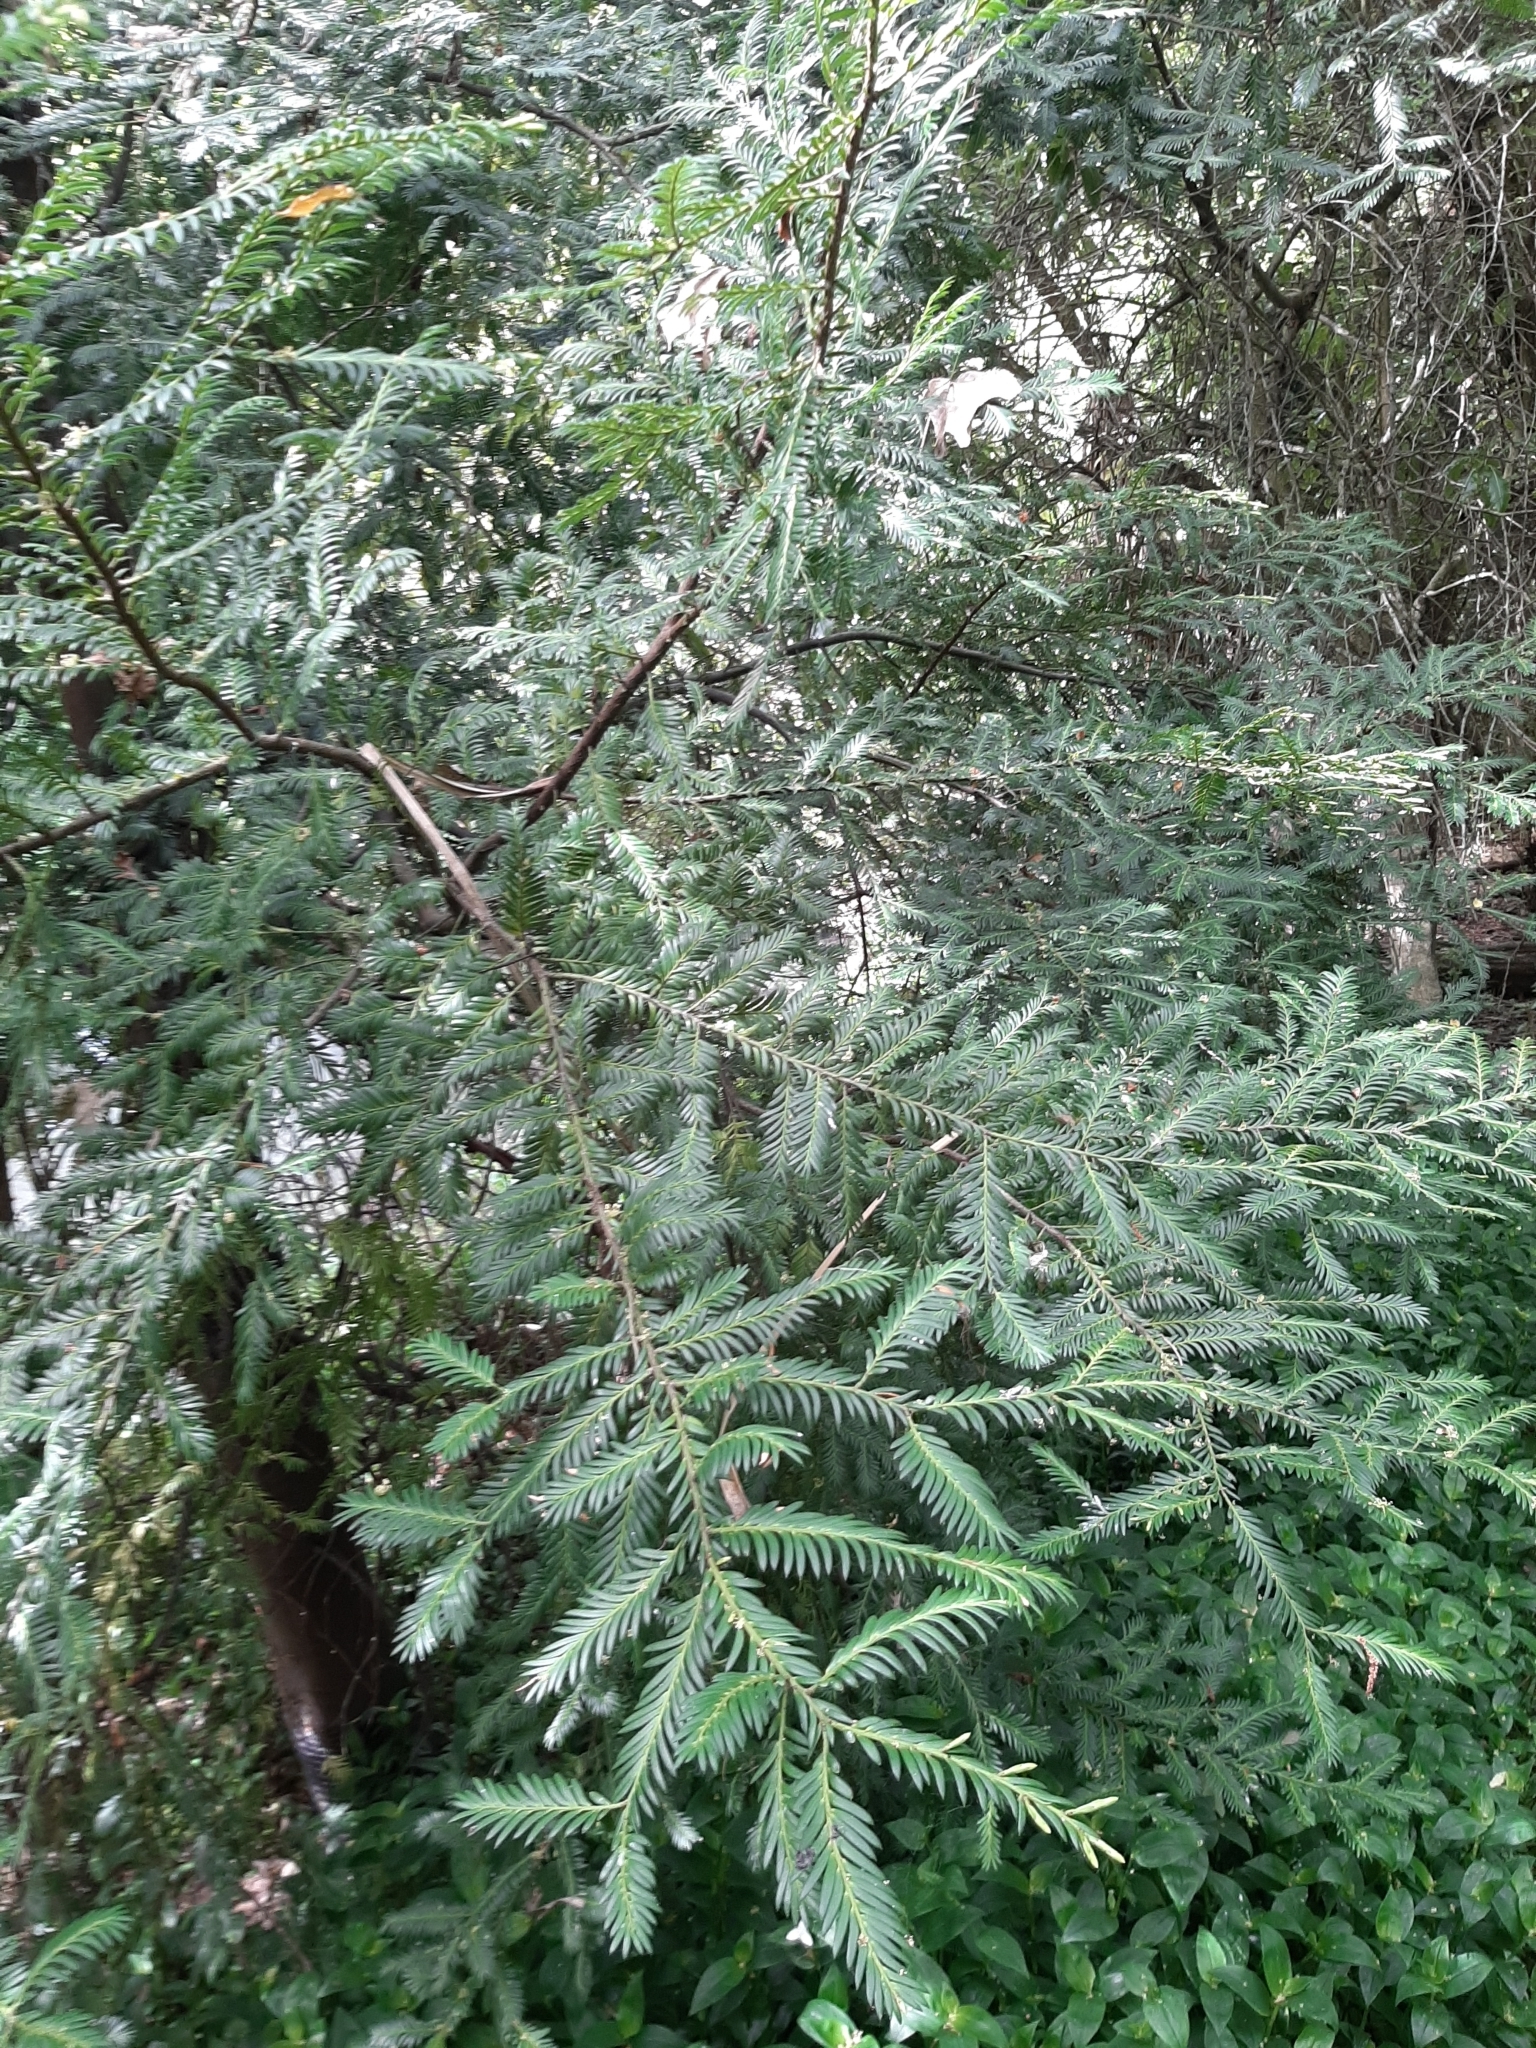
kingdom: Plantae
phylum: Tracheophyta
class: Pinopsida
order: Pinales
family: Podocarpaceae
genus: Prumnopitys
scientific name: Prumnopitys ferruginea
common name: Brown pine
